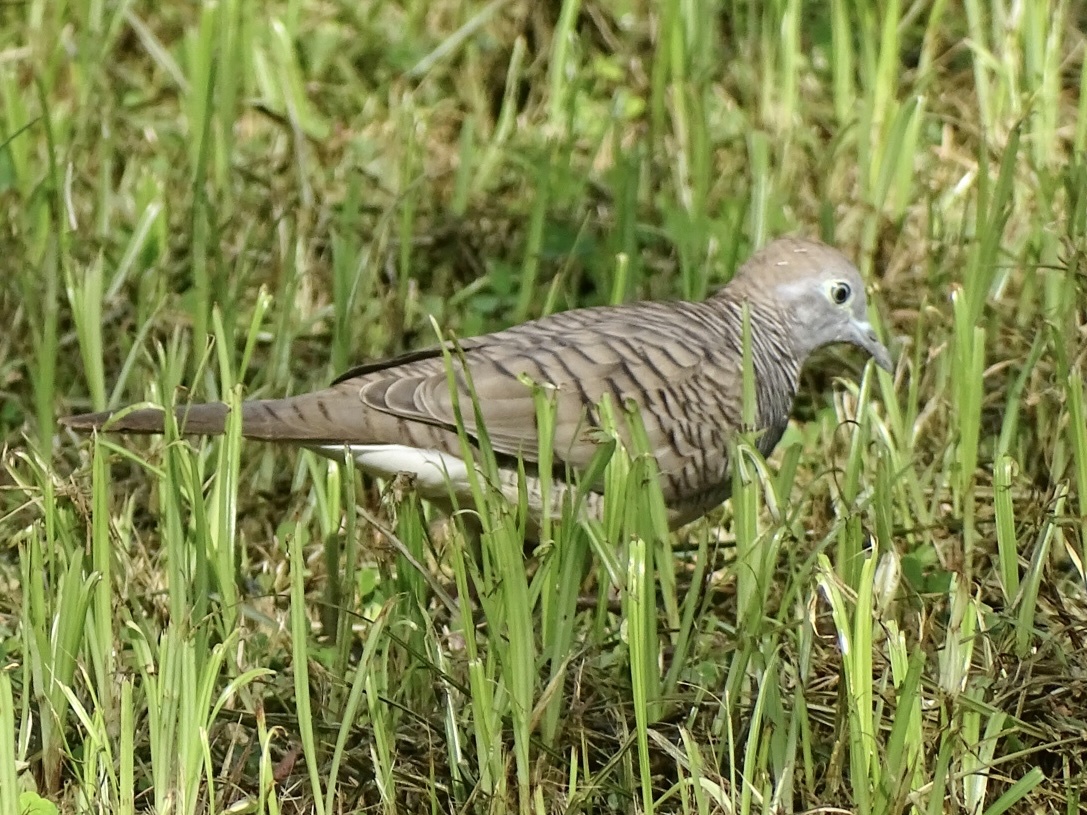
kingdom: Animalia
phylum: Chordata
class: Aves
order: Columbiformes
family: Columbidae
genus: Geopelia
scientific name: Geopelia striata
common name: Zebra dove
